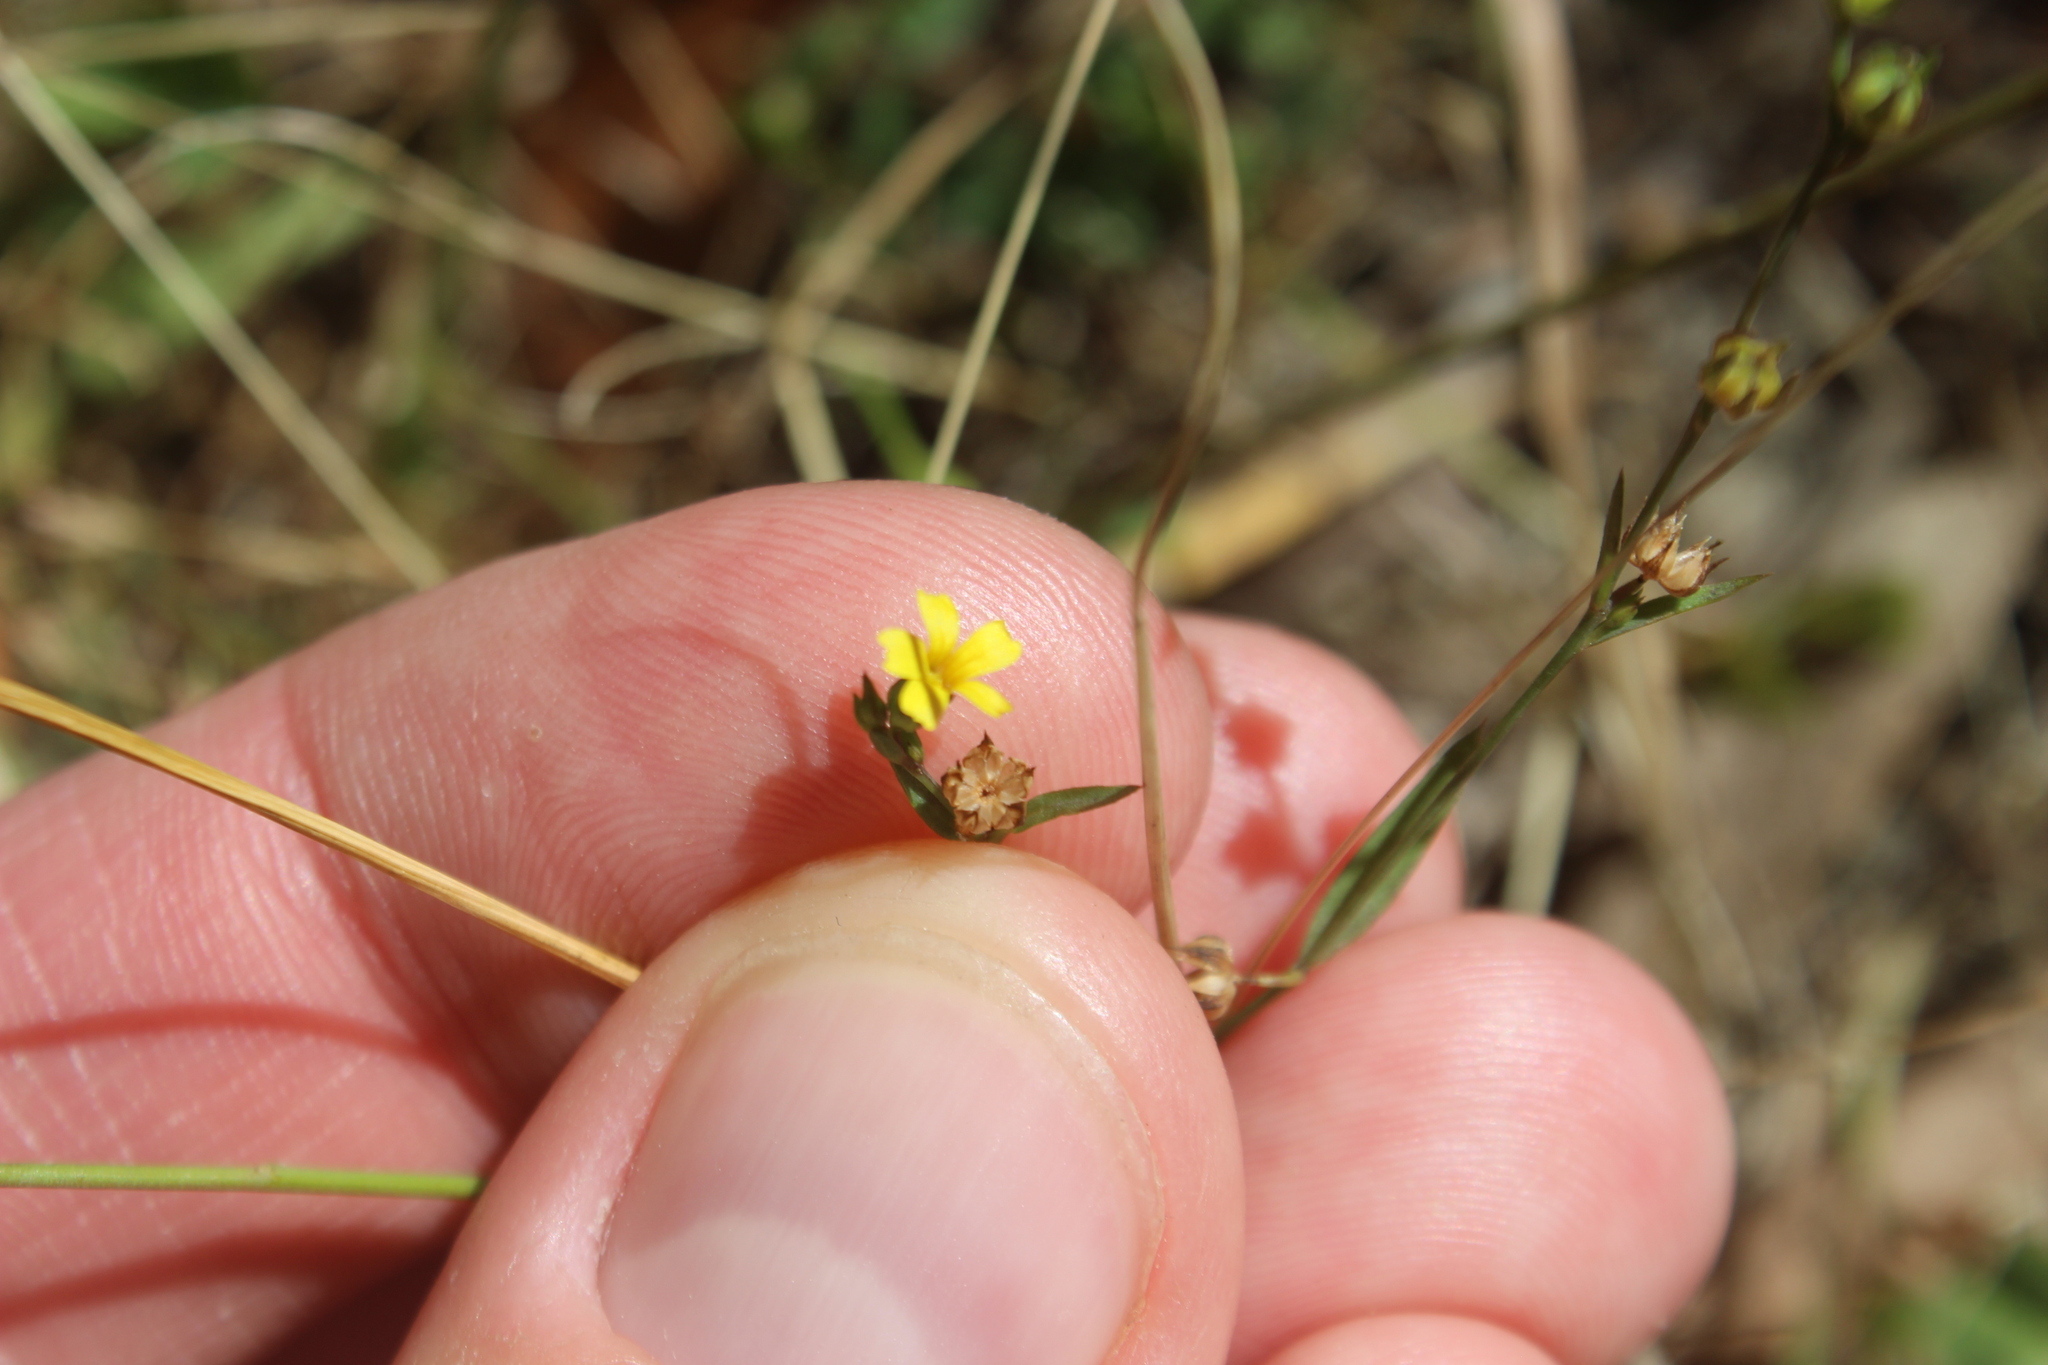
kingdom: Plantae
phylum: Tracheophyta
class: Magnoliopsida
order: Malpighiales
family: Linaceae
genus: Linum
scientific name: Linum trigynum
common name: French flax
